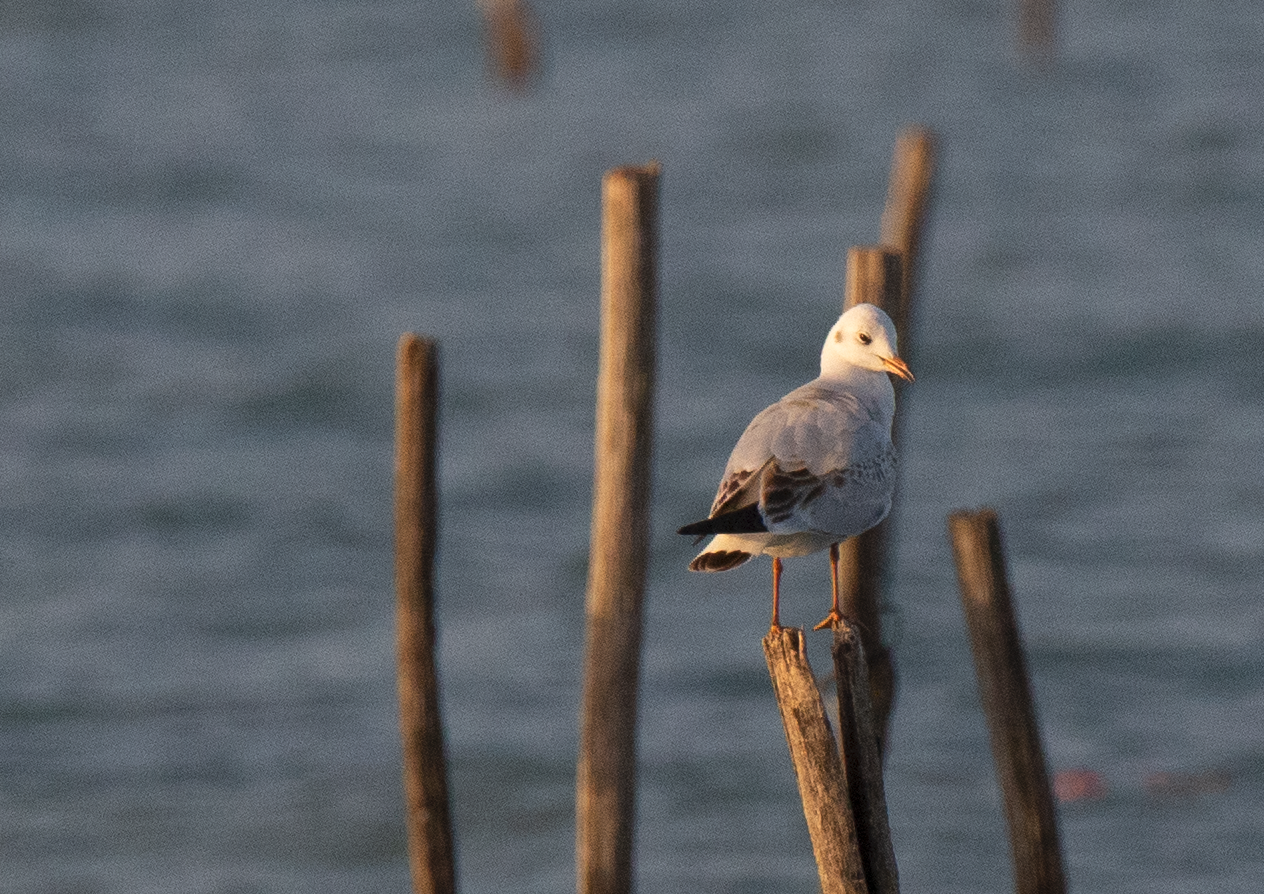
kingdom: Animalia
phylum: Chordata
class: Aves
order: Charadriiformes
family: Laridae
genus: Chroicocephalus
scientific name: Chroicocephalus ridibundus
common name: Black-headed gull
